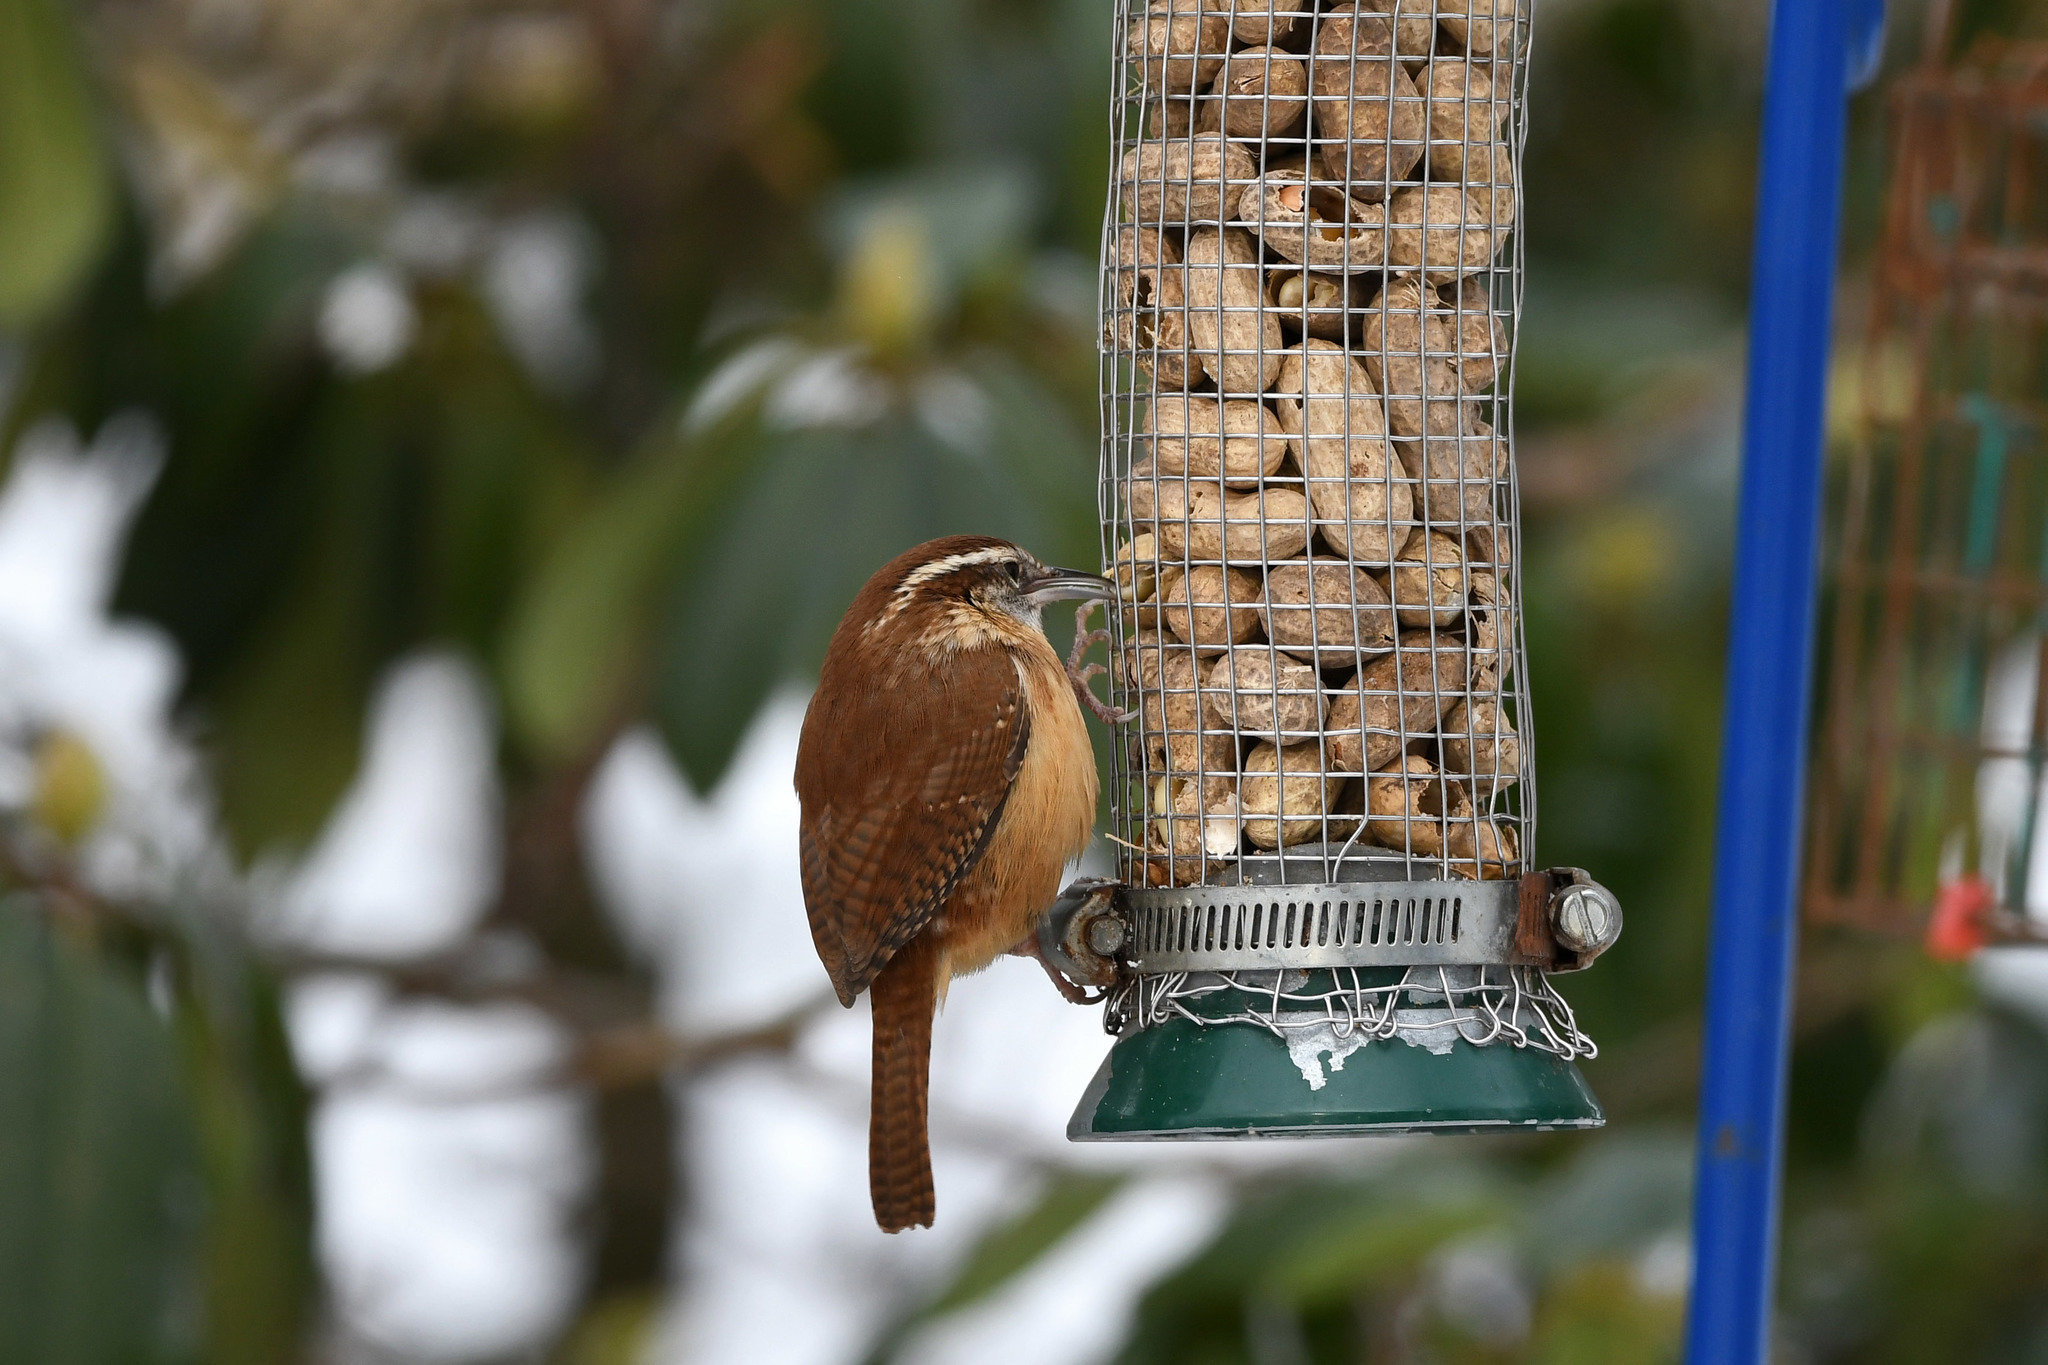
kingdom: Animalia
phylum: Chordata
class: Aves
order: Passeriformes
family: Troglodytidae
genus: Thryothorus
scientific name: Thryothorus ludovicianus
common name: Carolina wren
